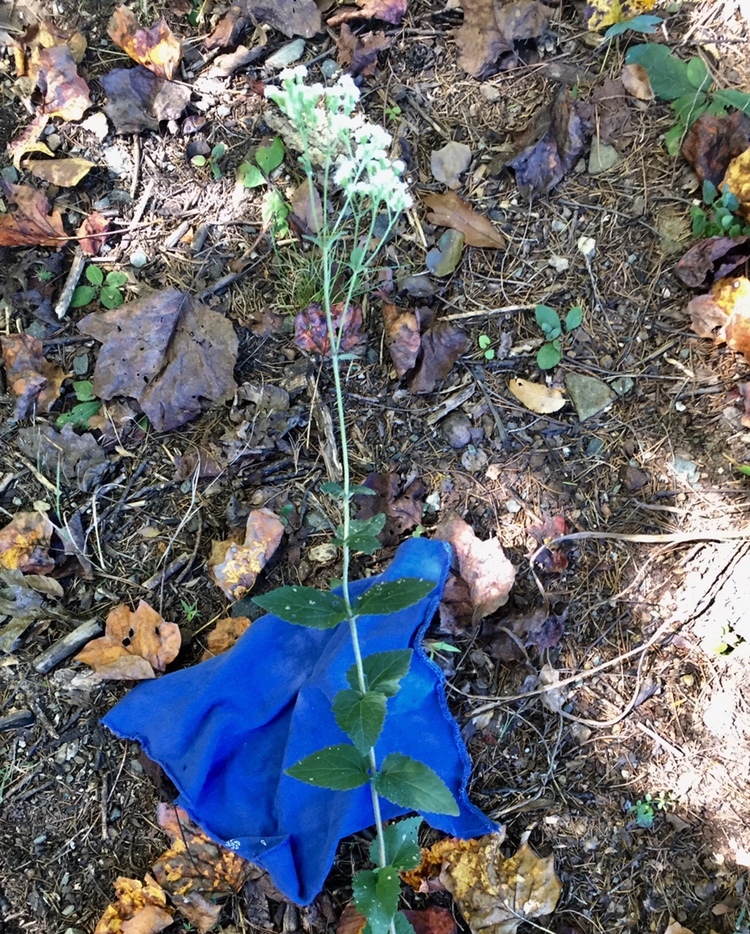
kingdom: Plantae
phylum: Tracheophyta
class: Magnoliopsida
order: Asterales
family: Asteraceae
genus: Ageratina
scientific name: Ageratina aromatica
